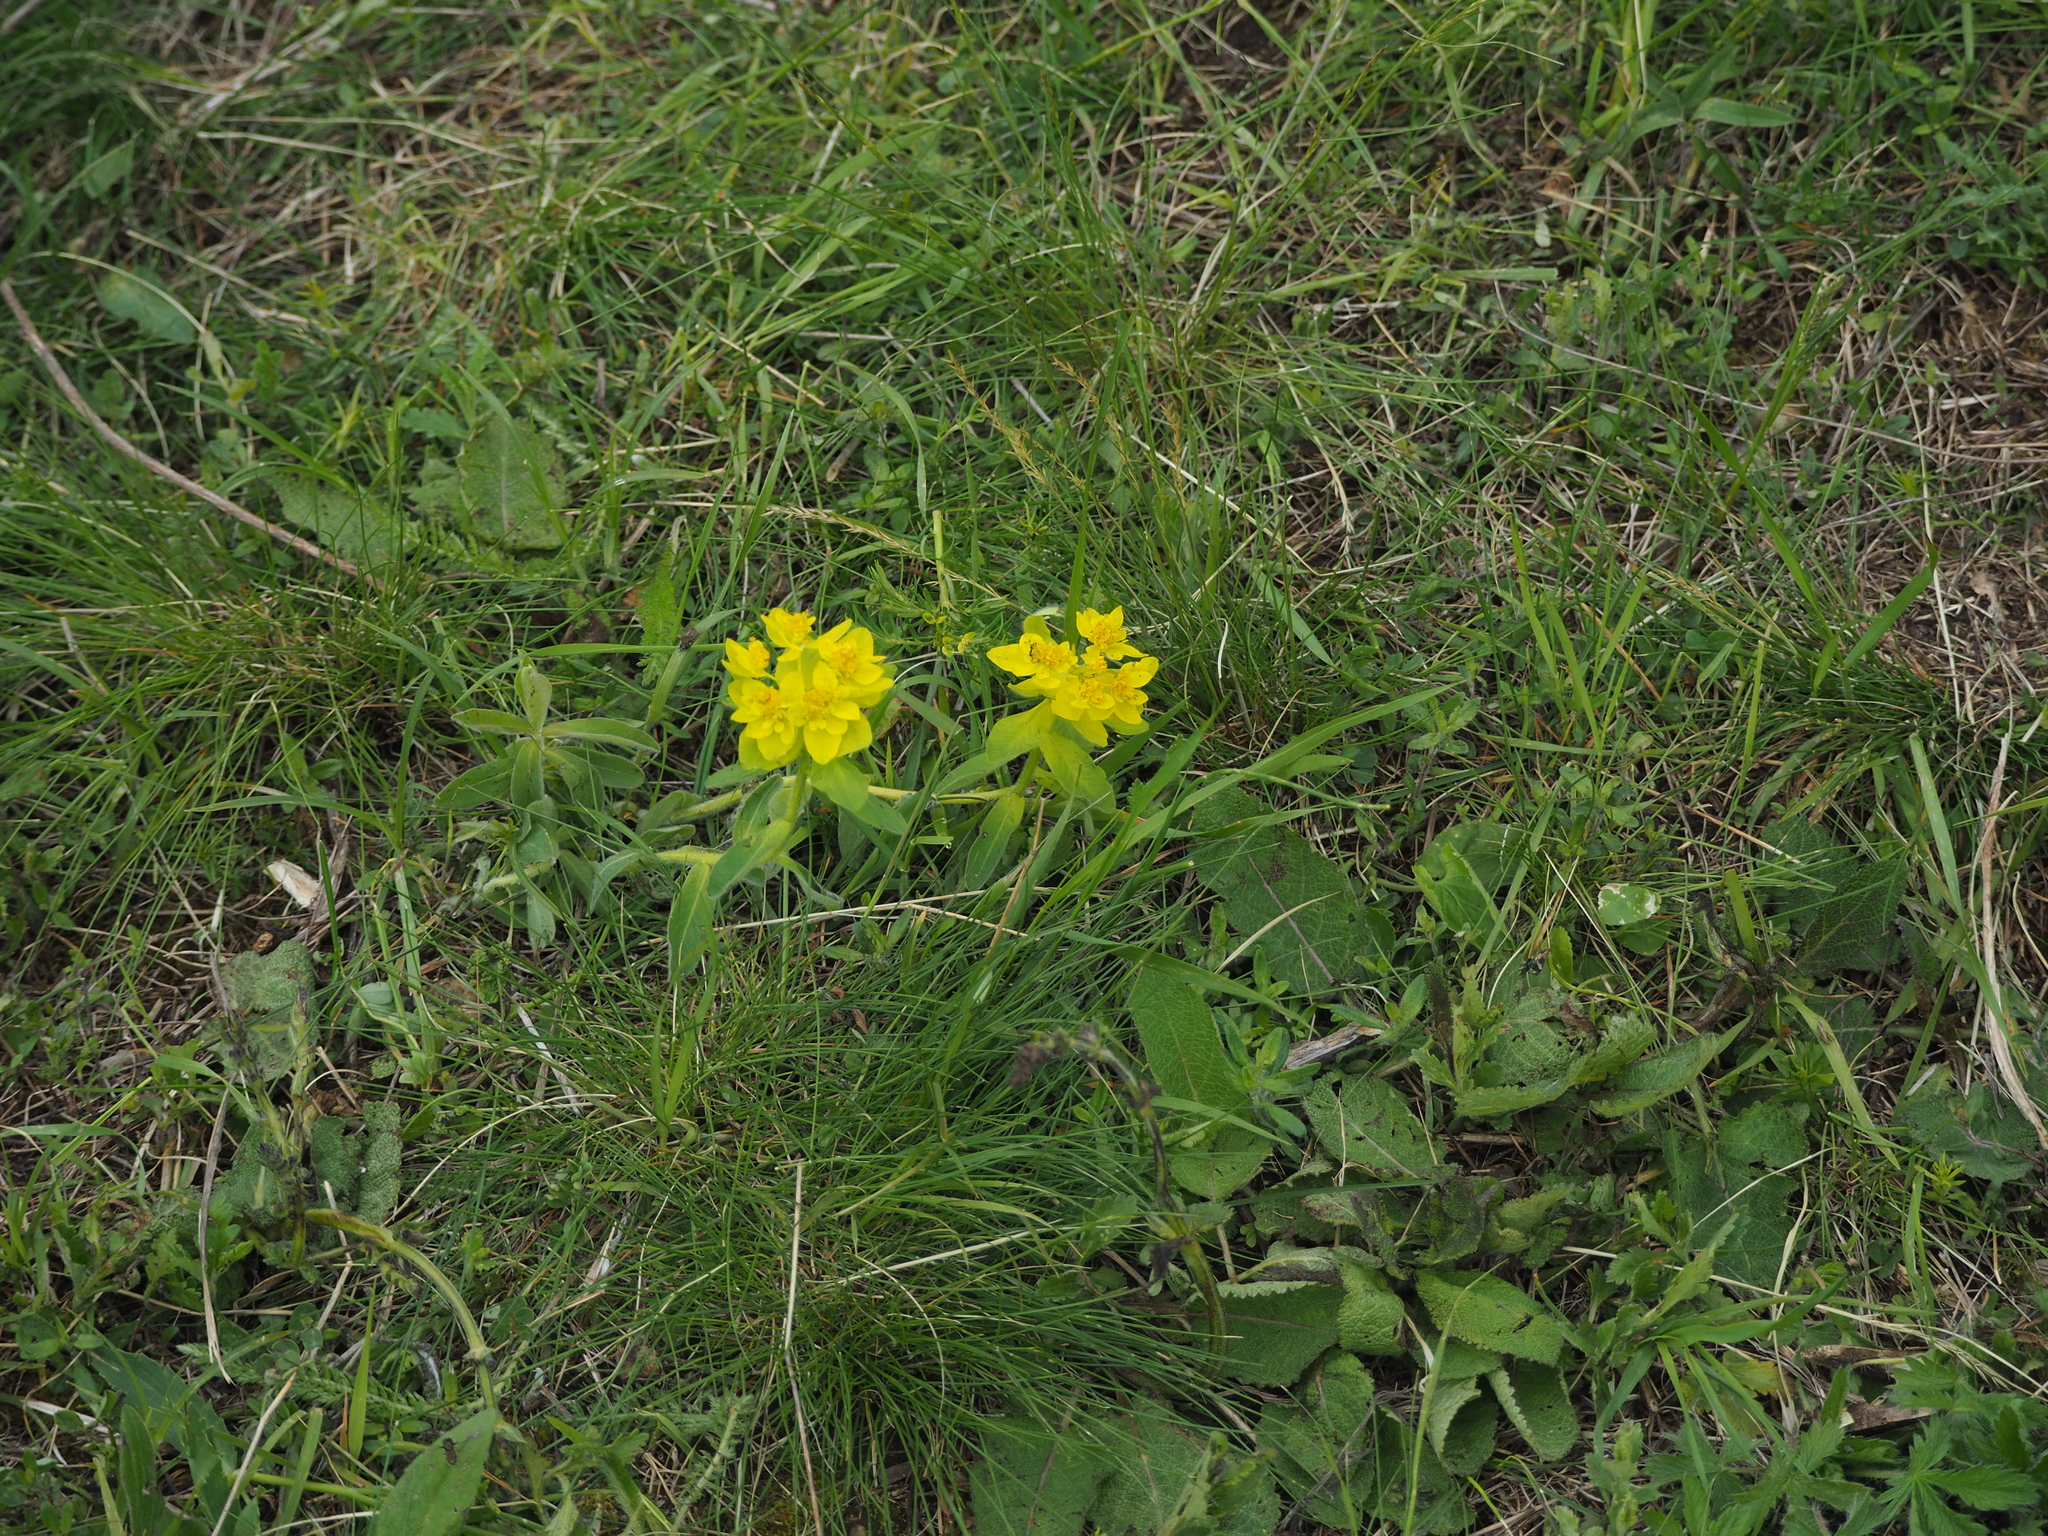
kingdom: Plantae
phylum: Tracheophyta
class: Magnoliopsida
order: Malpighiales
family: Euphorbiaceae
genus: Euphorbia
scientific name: Euphorbia epithymoides
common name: Cushion spurge
